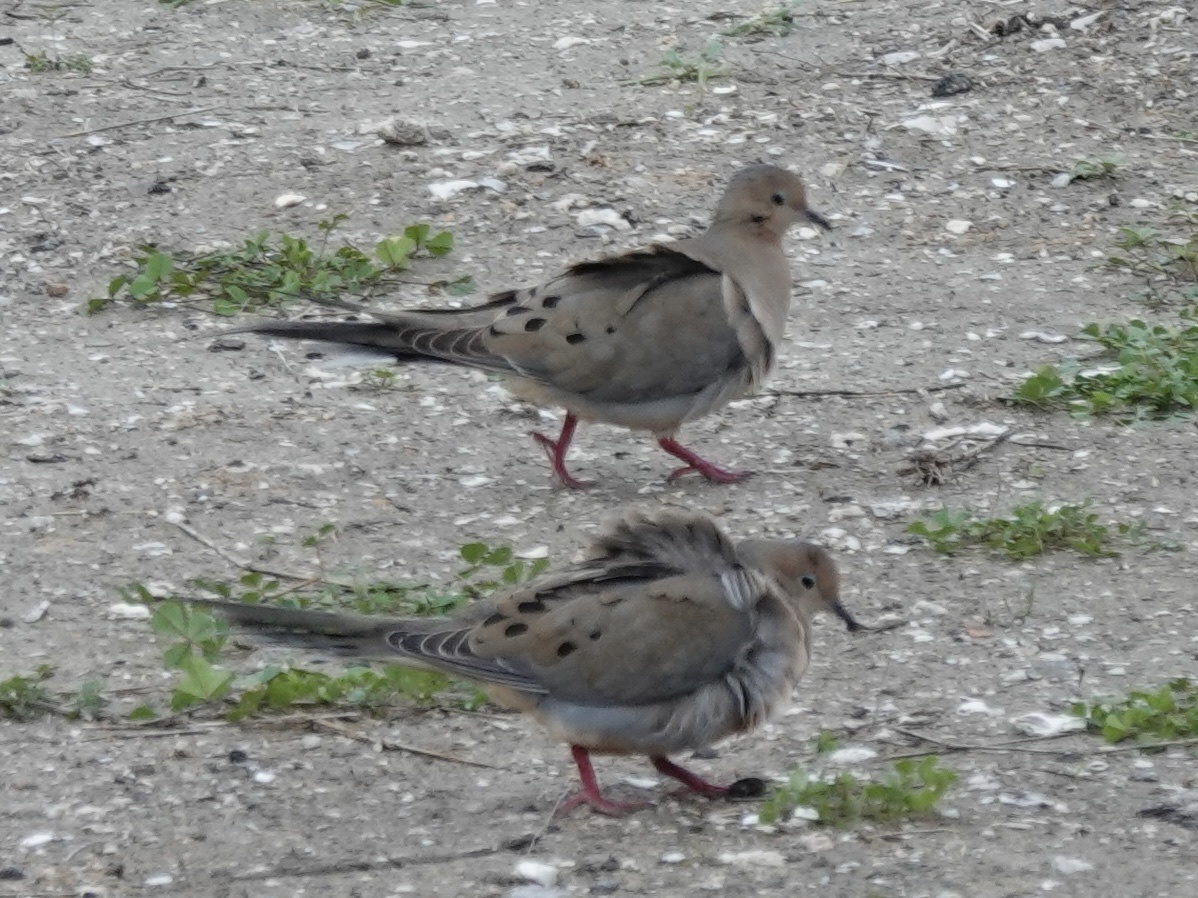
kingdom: Animalia
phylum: Chordata
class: Aves
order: Columbiformes
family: Columbidae
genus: Zenaida
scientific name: Zenaida macroura
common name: Mourning dove
